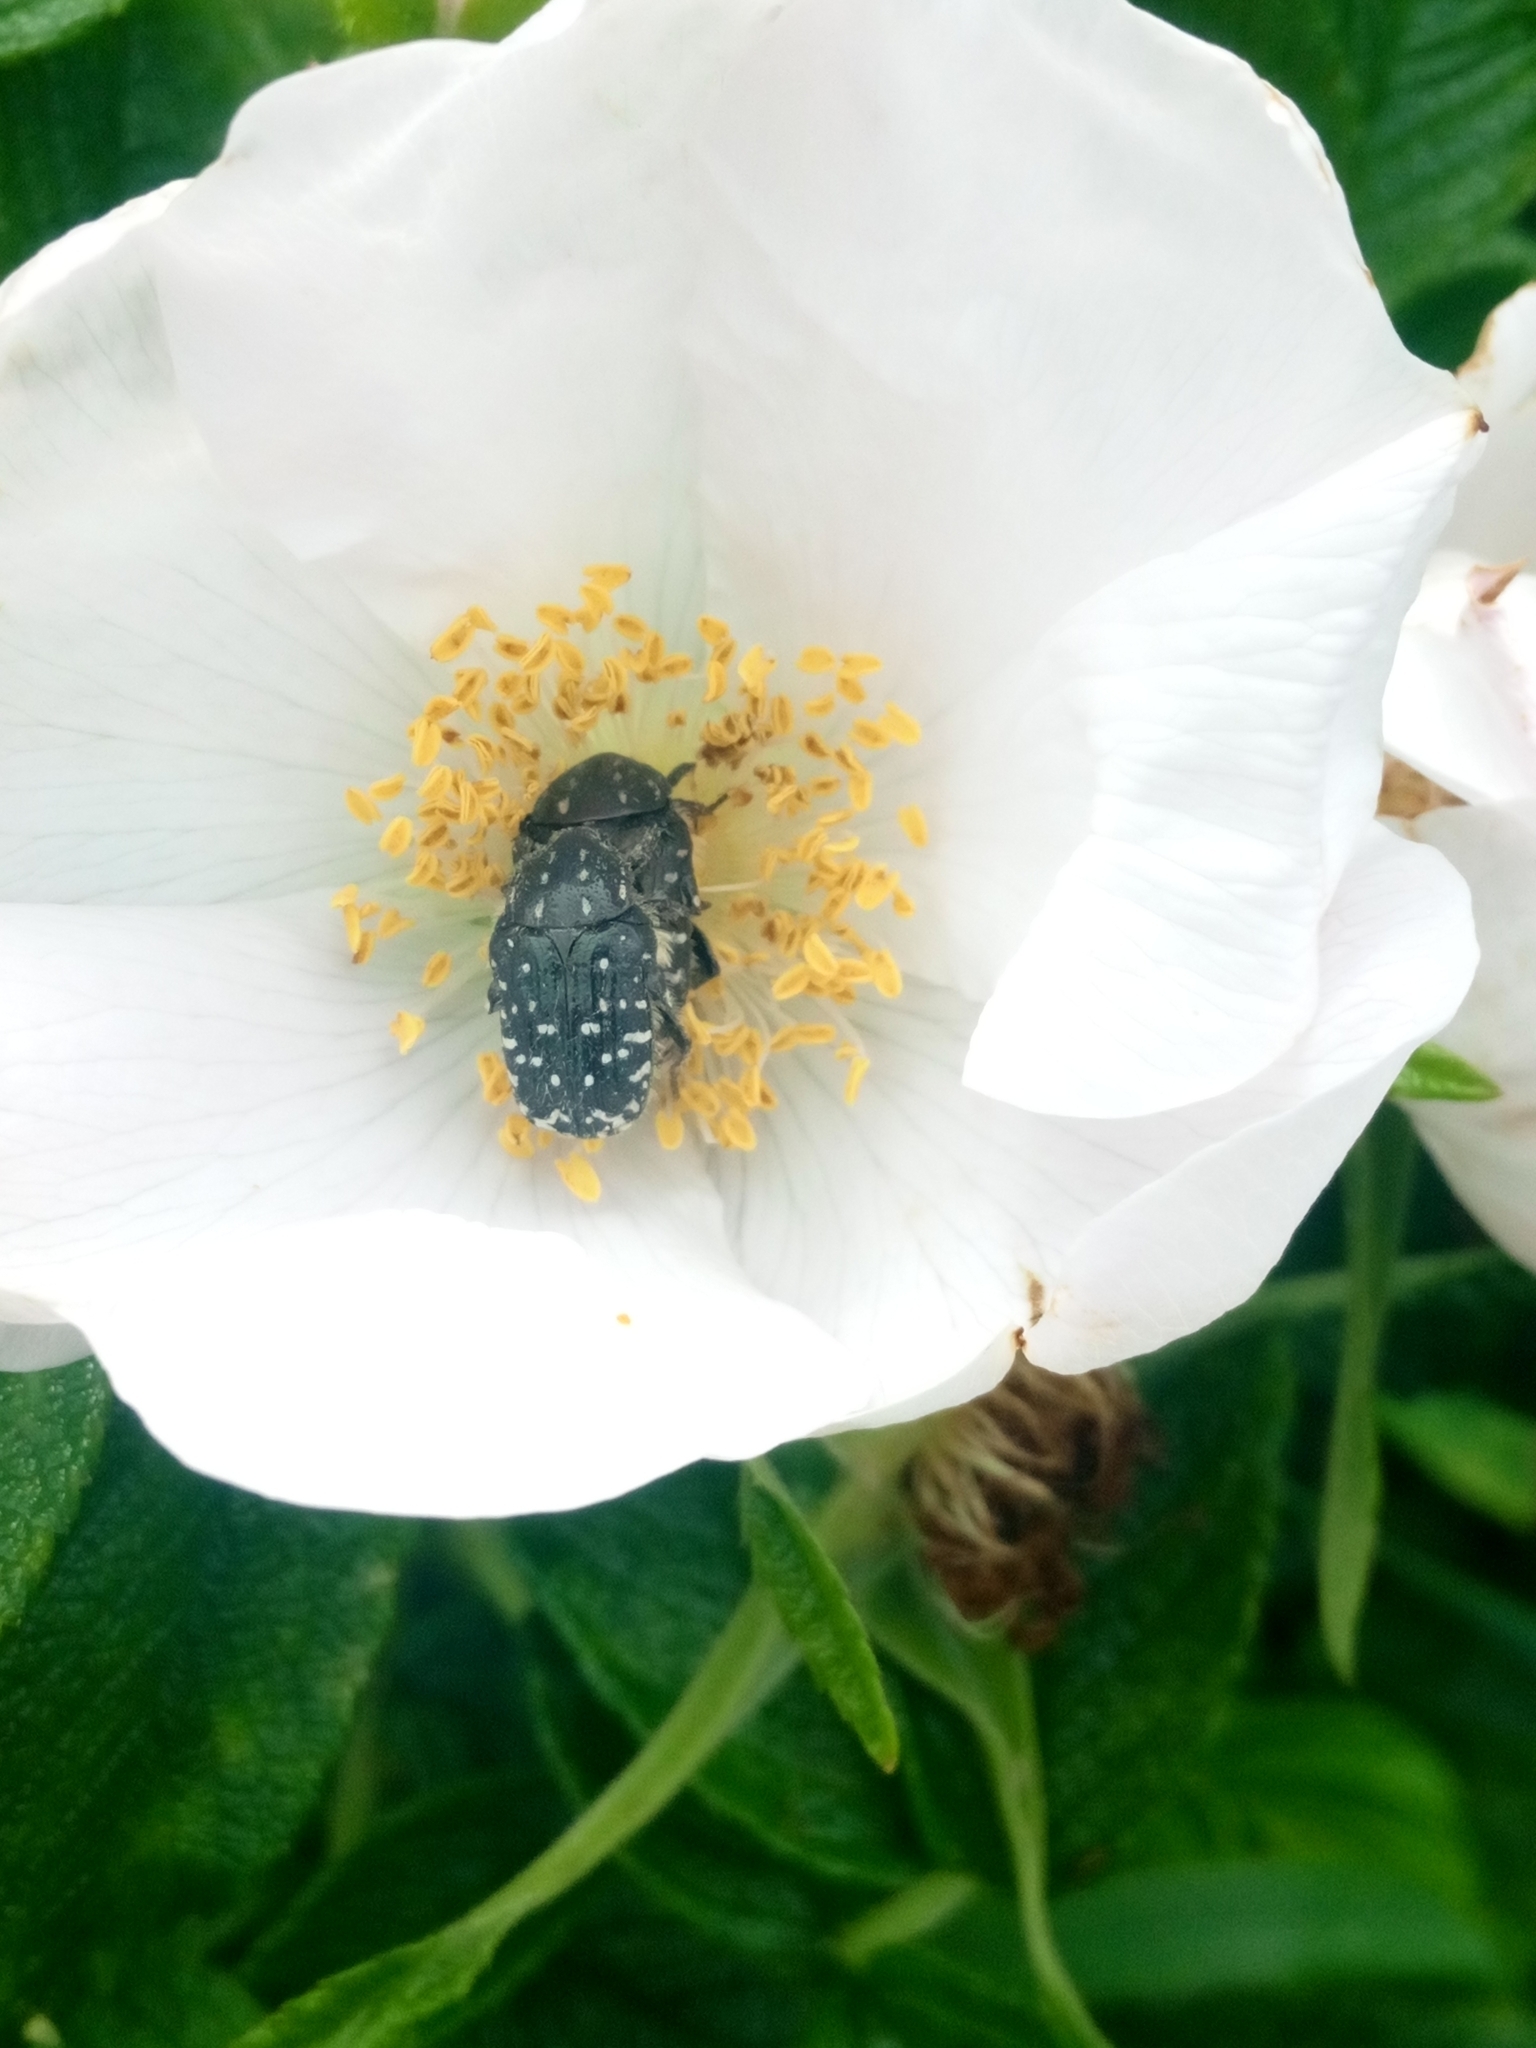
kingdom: Animalia
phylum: Arthropoda
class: Insecta
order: Coleoptera
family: Scarabaeidae
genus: Oxythyrea
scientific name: Oxythyrea funesta
